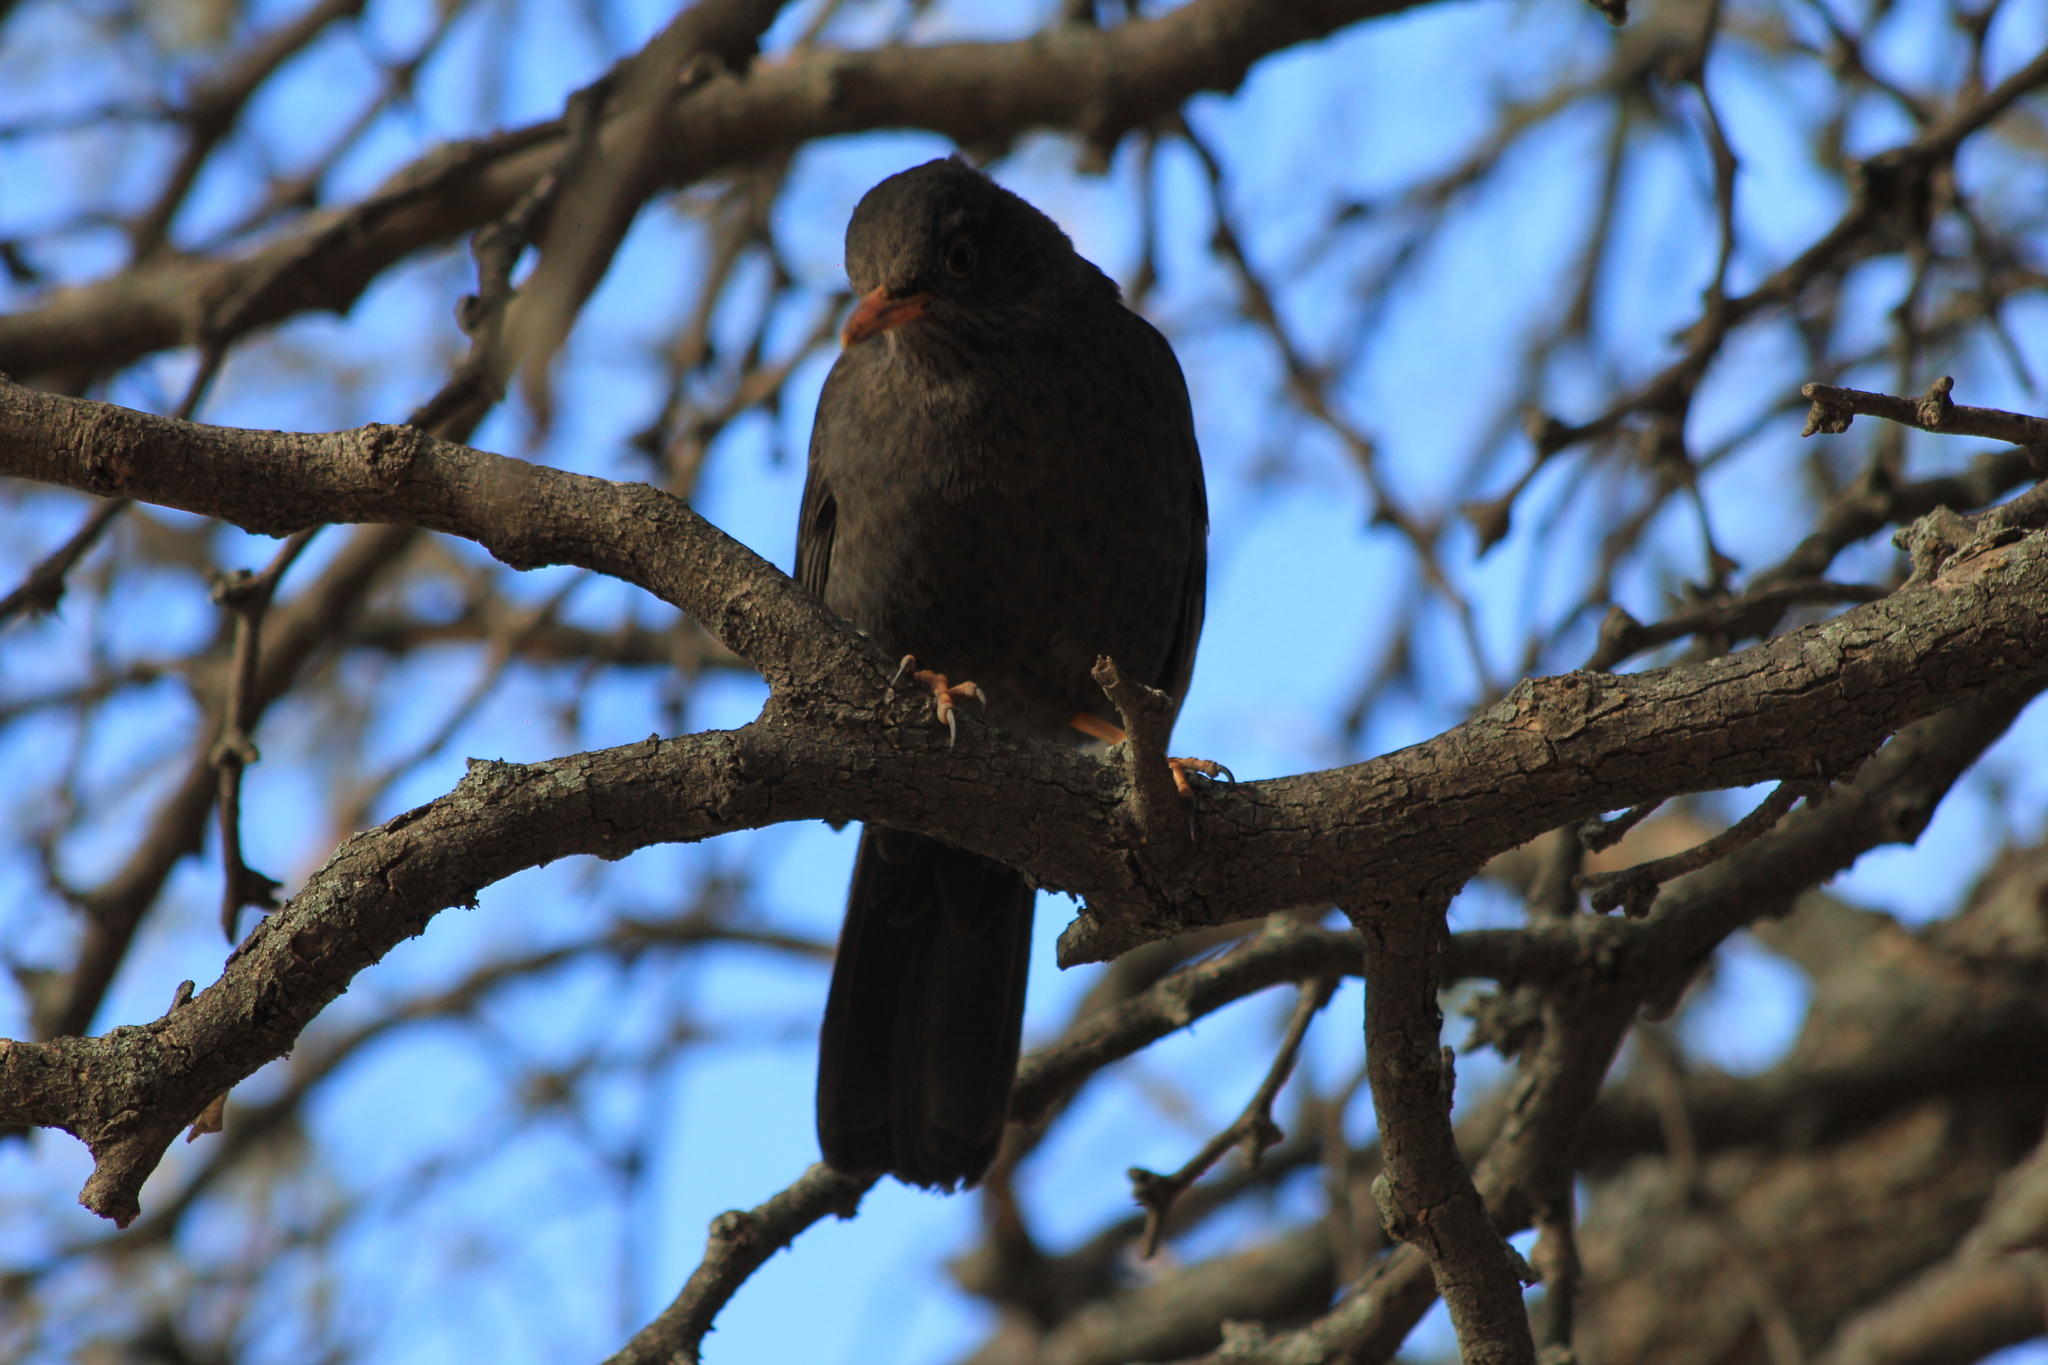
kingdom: Animalia
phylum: Chordata
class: Aves
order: Passeriformes
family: Turdidae
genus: Turdus
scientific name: Turdus chiguanco
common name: Chiguanco thrush
